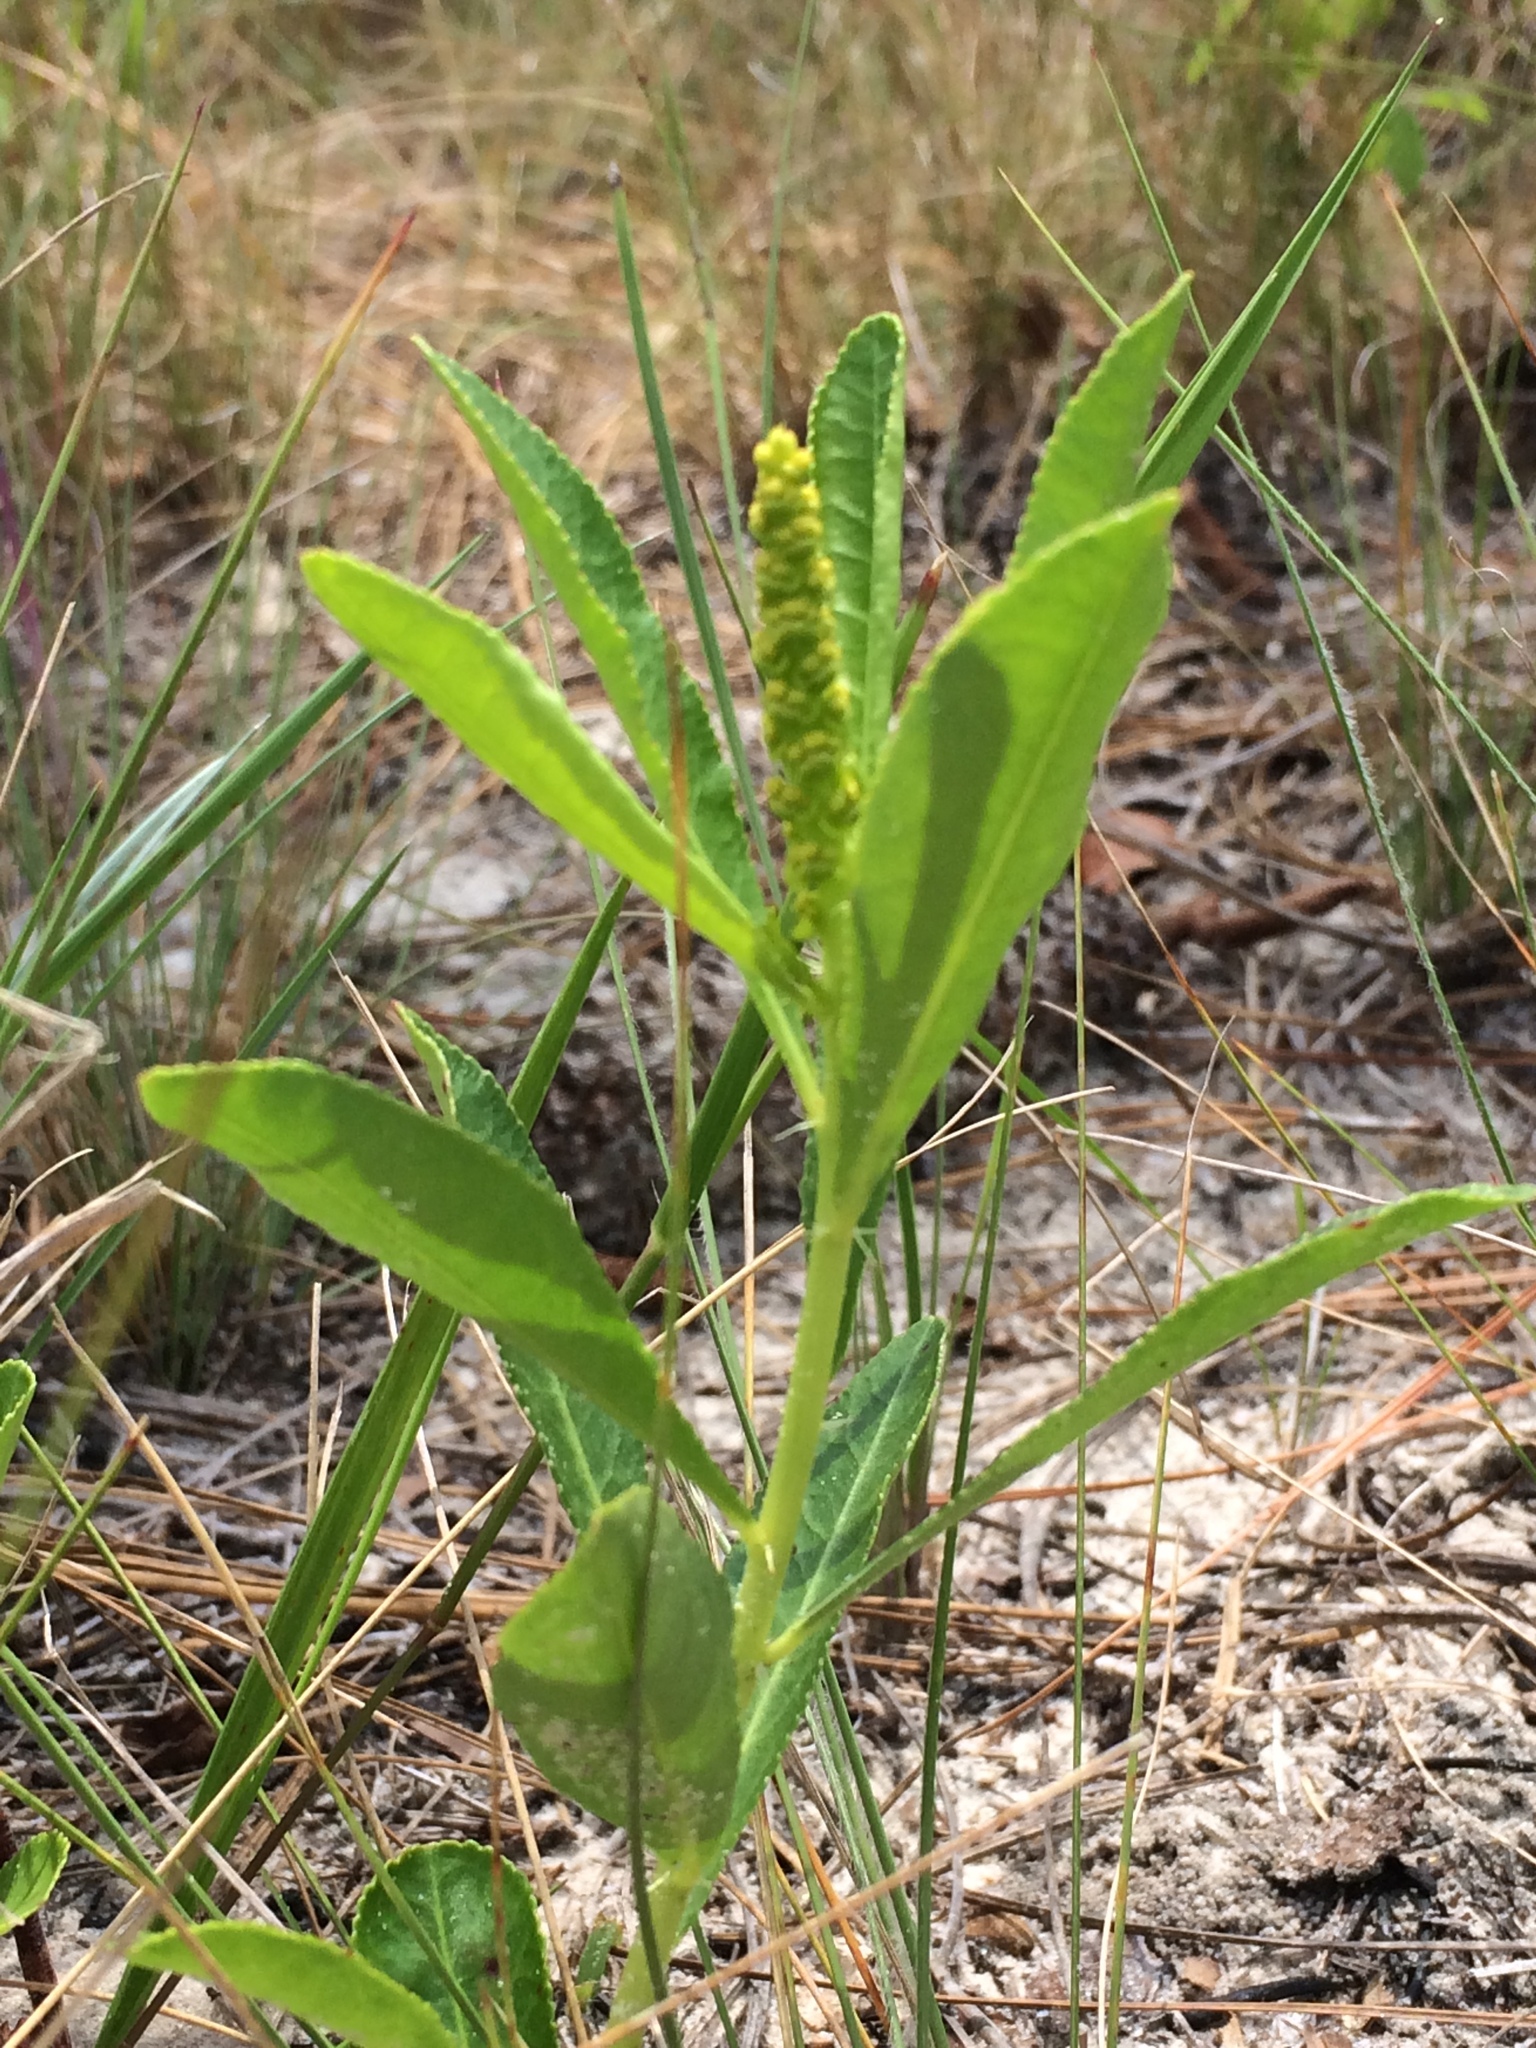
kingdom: Plantae
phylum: Tracheophyta
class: Magnoliopsida
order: Malpighiales
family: Euphorbiaceae
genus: Stillingia
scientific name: Stillingia sylvatica
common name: Queen's-delight
